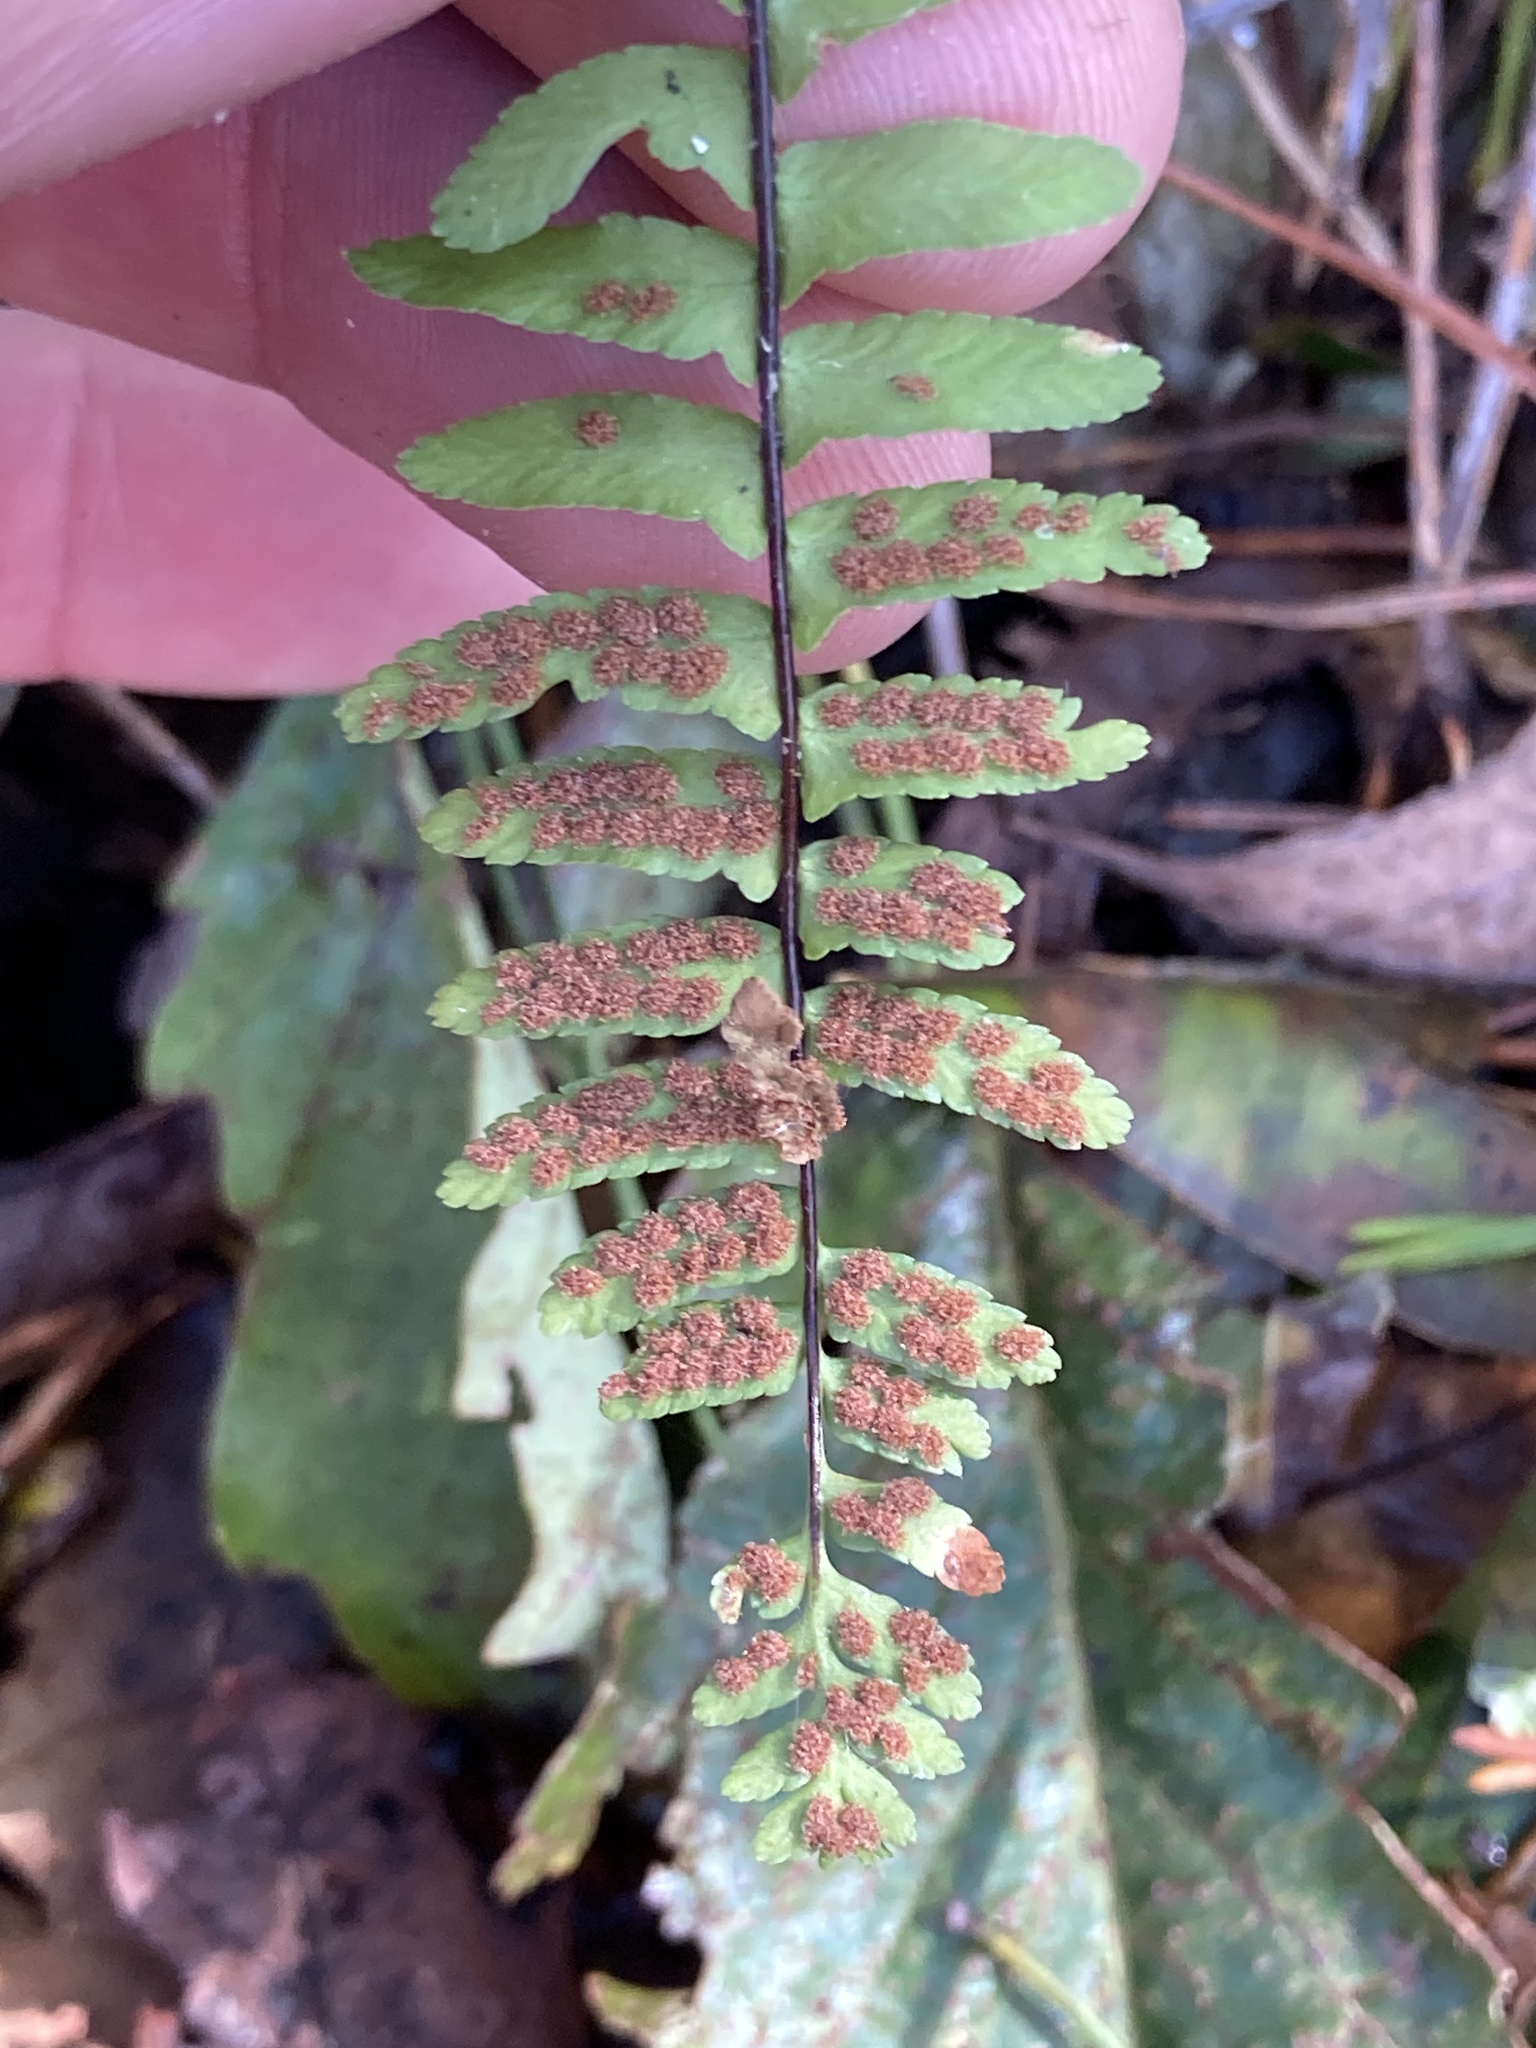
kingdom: Plantae
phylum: Tracheophyta
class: Polypodiopsida
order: Polypodiales
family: Aspleniaceae
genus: Asplenium
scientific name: Asplenium platyneuron
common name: Ebony spleenwort
